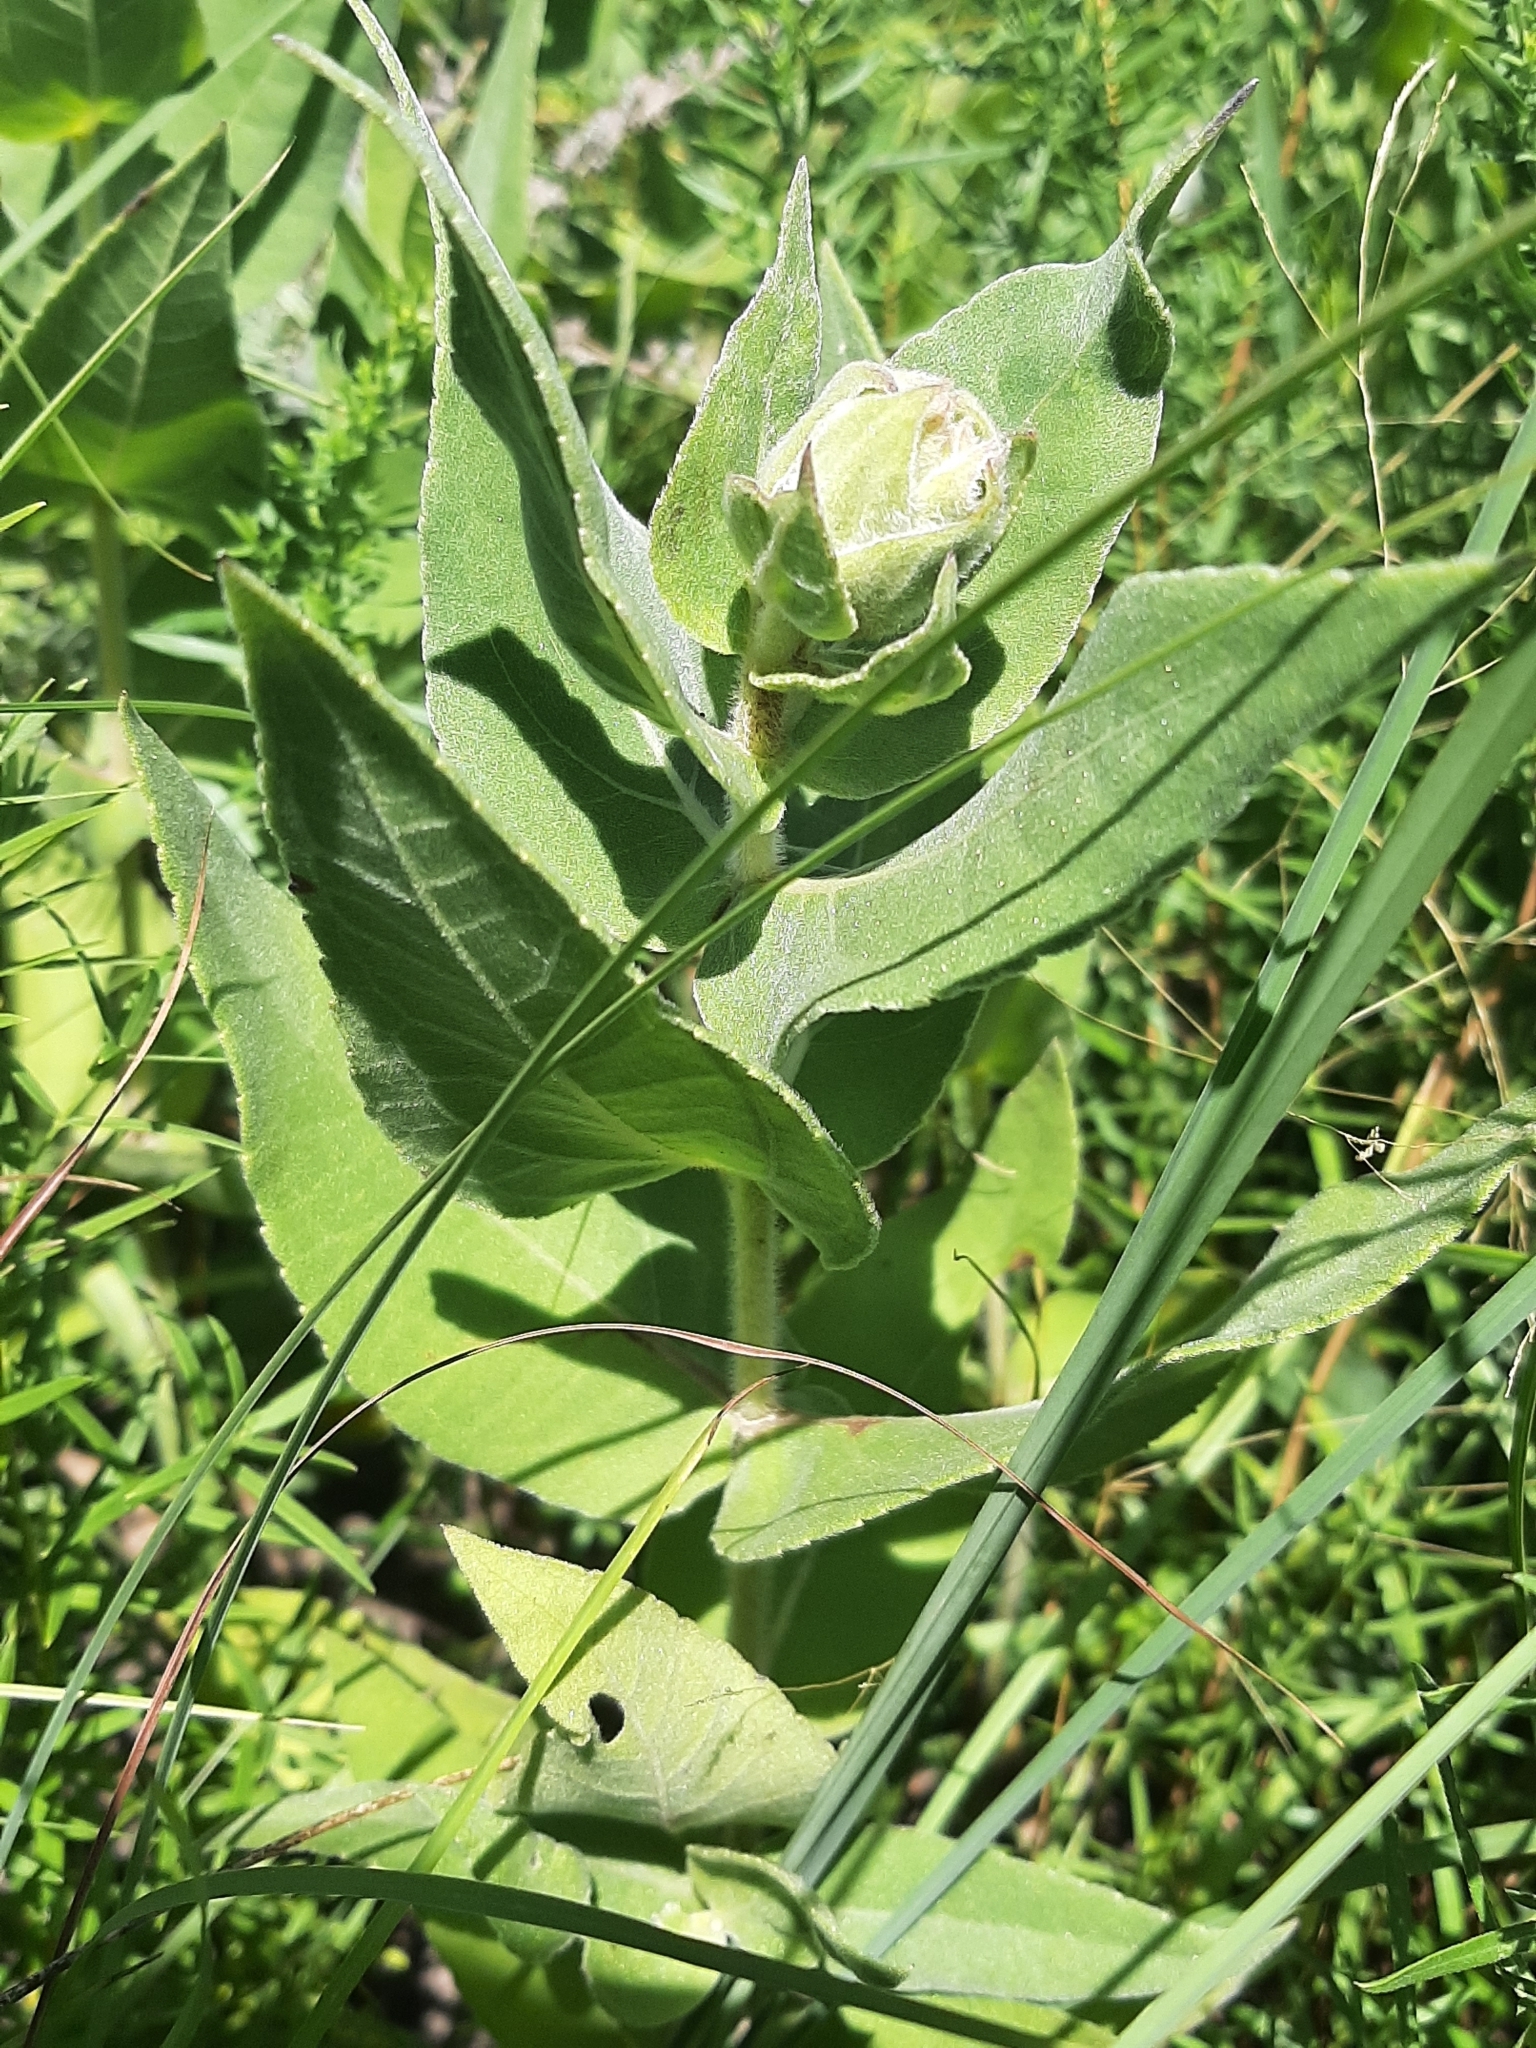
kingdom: Plantae
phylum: Tracheophyta
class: Magnoliopsida
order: Asterales
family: Asteraceae
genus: Helianthus
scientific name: Helianthus mollis
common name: Ashy sunflower
